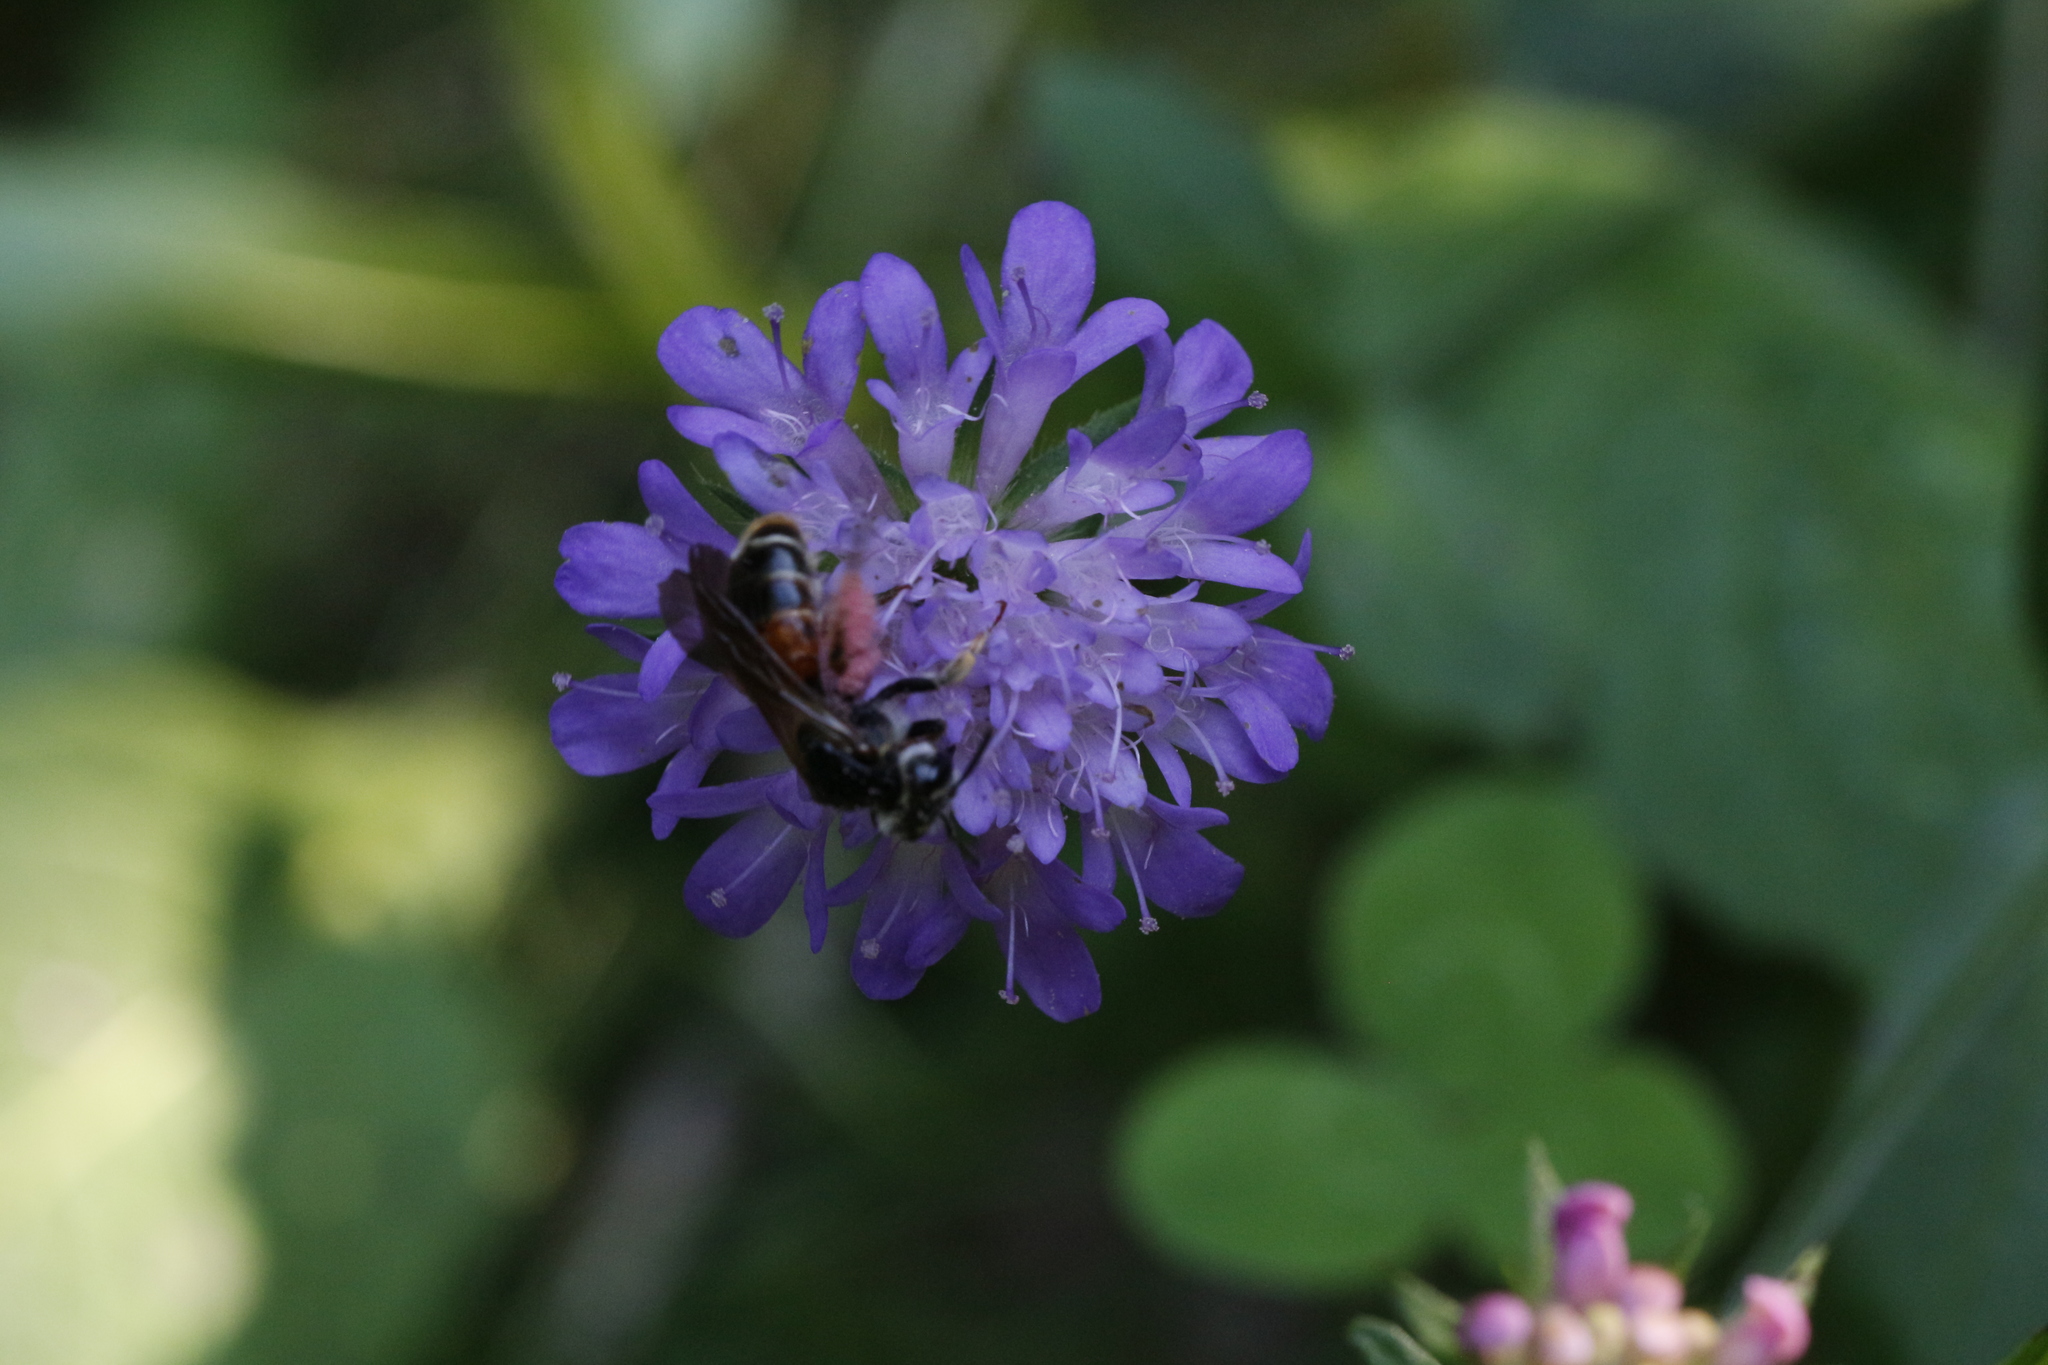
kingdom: Animalia
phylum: Arthropoda
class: Insecta
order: Hymenoptera
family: Andrenidae
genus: Andrena
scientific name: Andrena hattorfiana
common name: Large scabious mining bee
